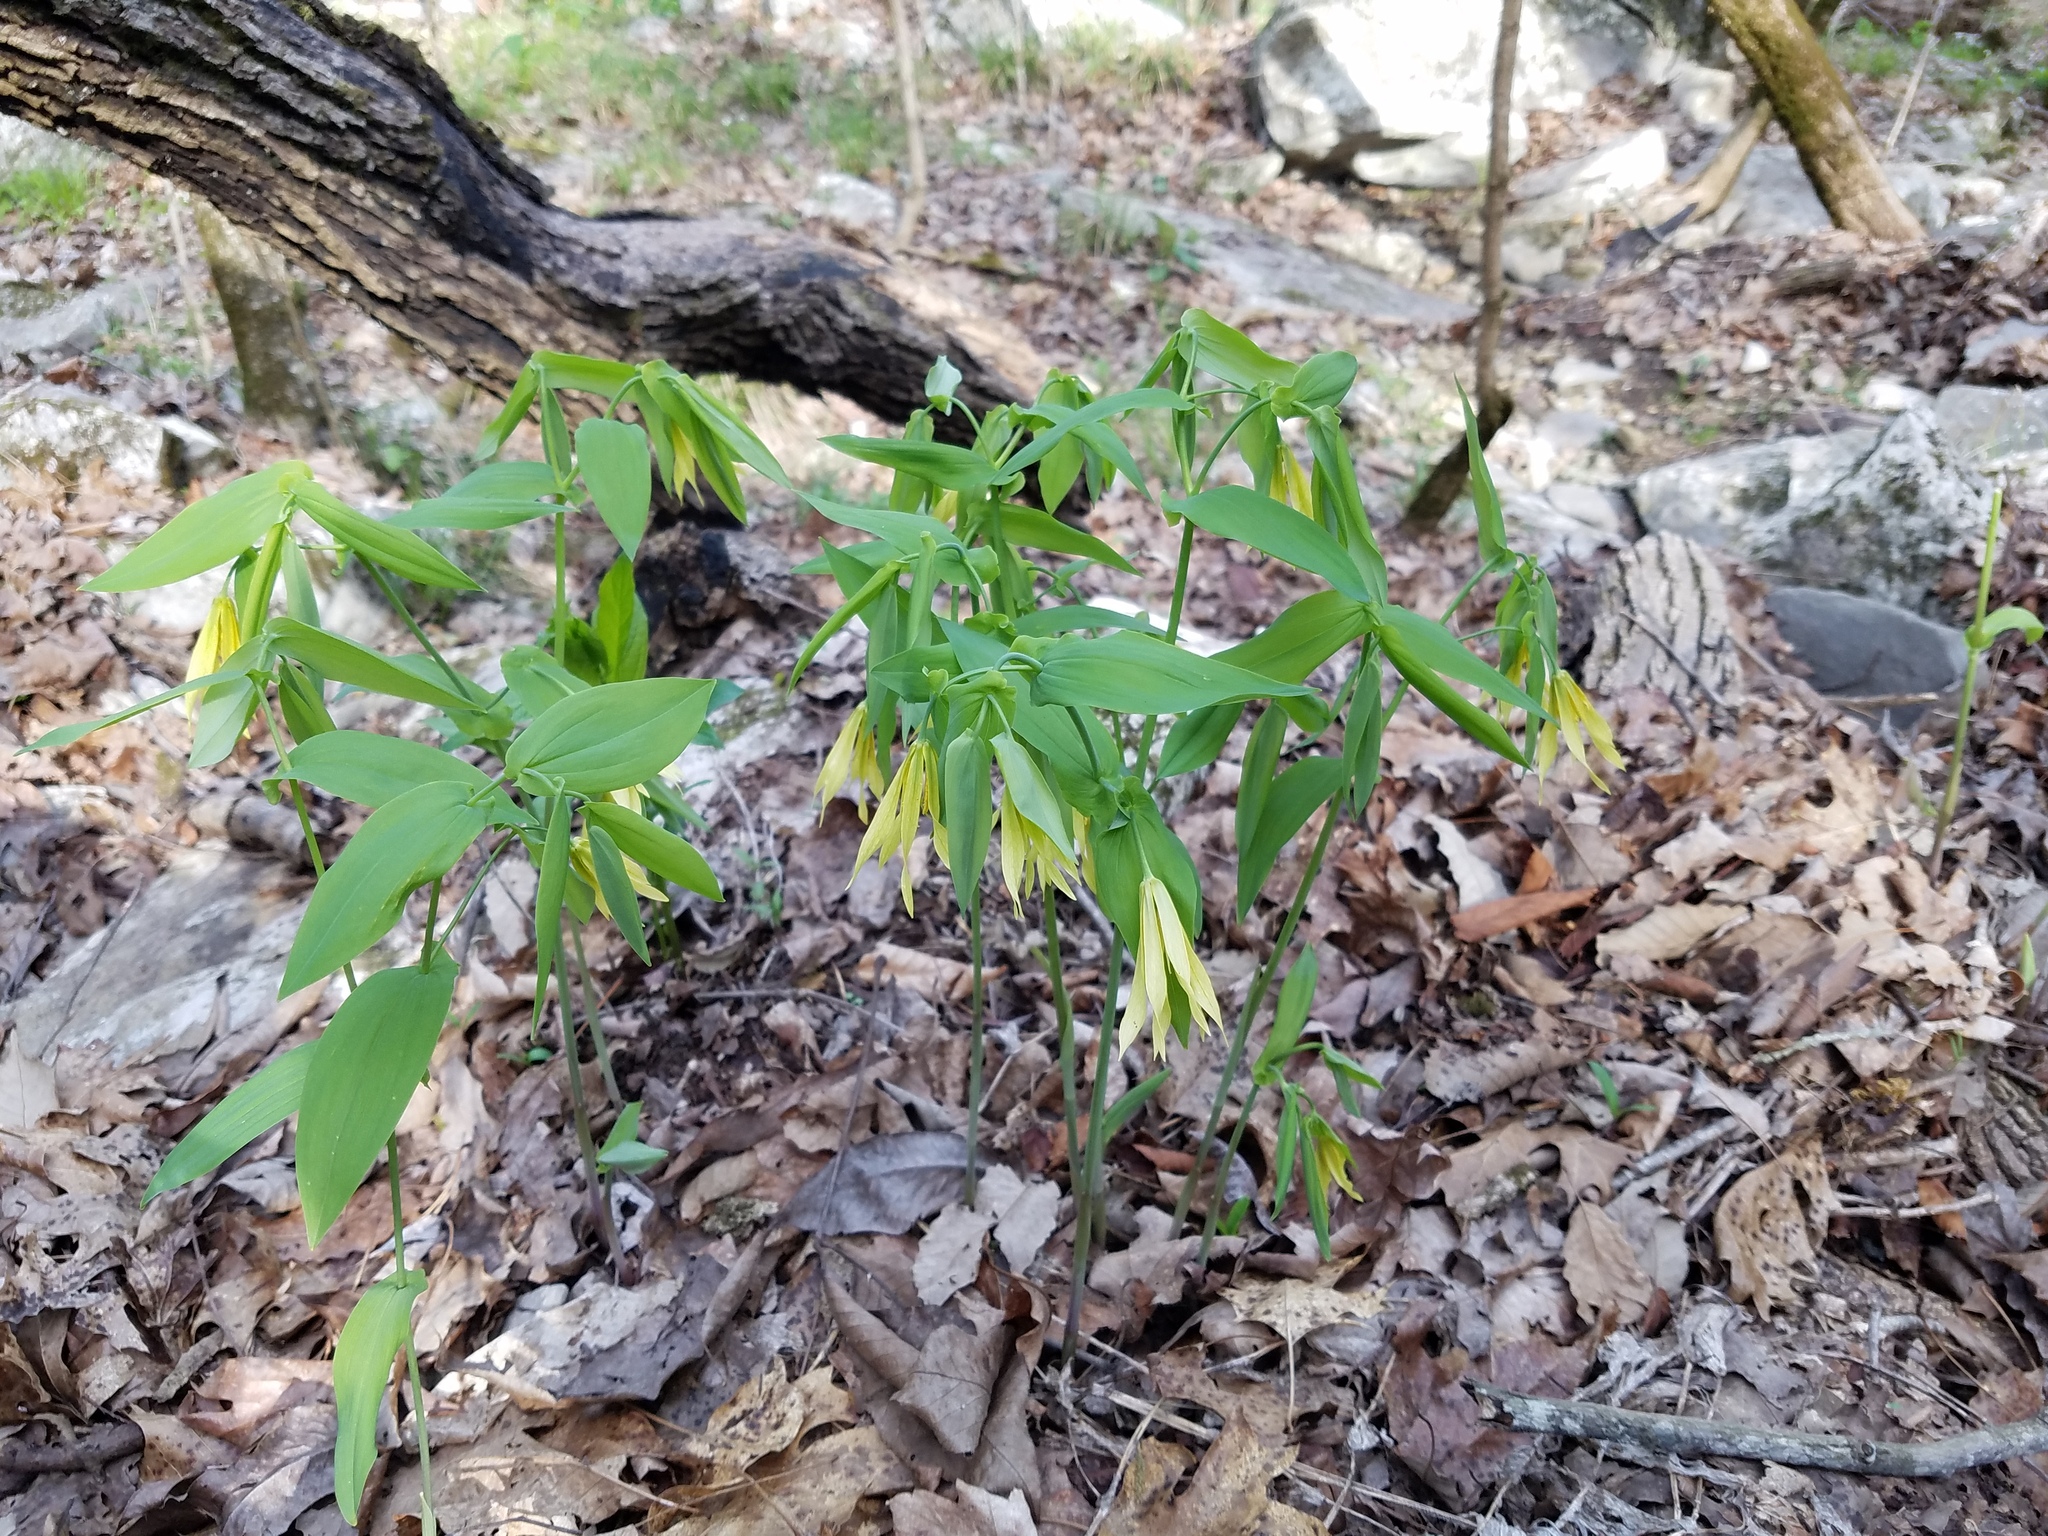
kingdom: Plantae
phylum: Tracheophyta
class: Liliopsida
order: Liliales
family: Colchicaceae
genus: Uvularia
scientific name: Uvularia grandiflora
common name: Bellwort
